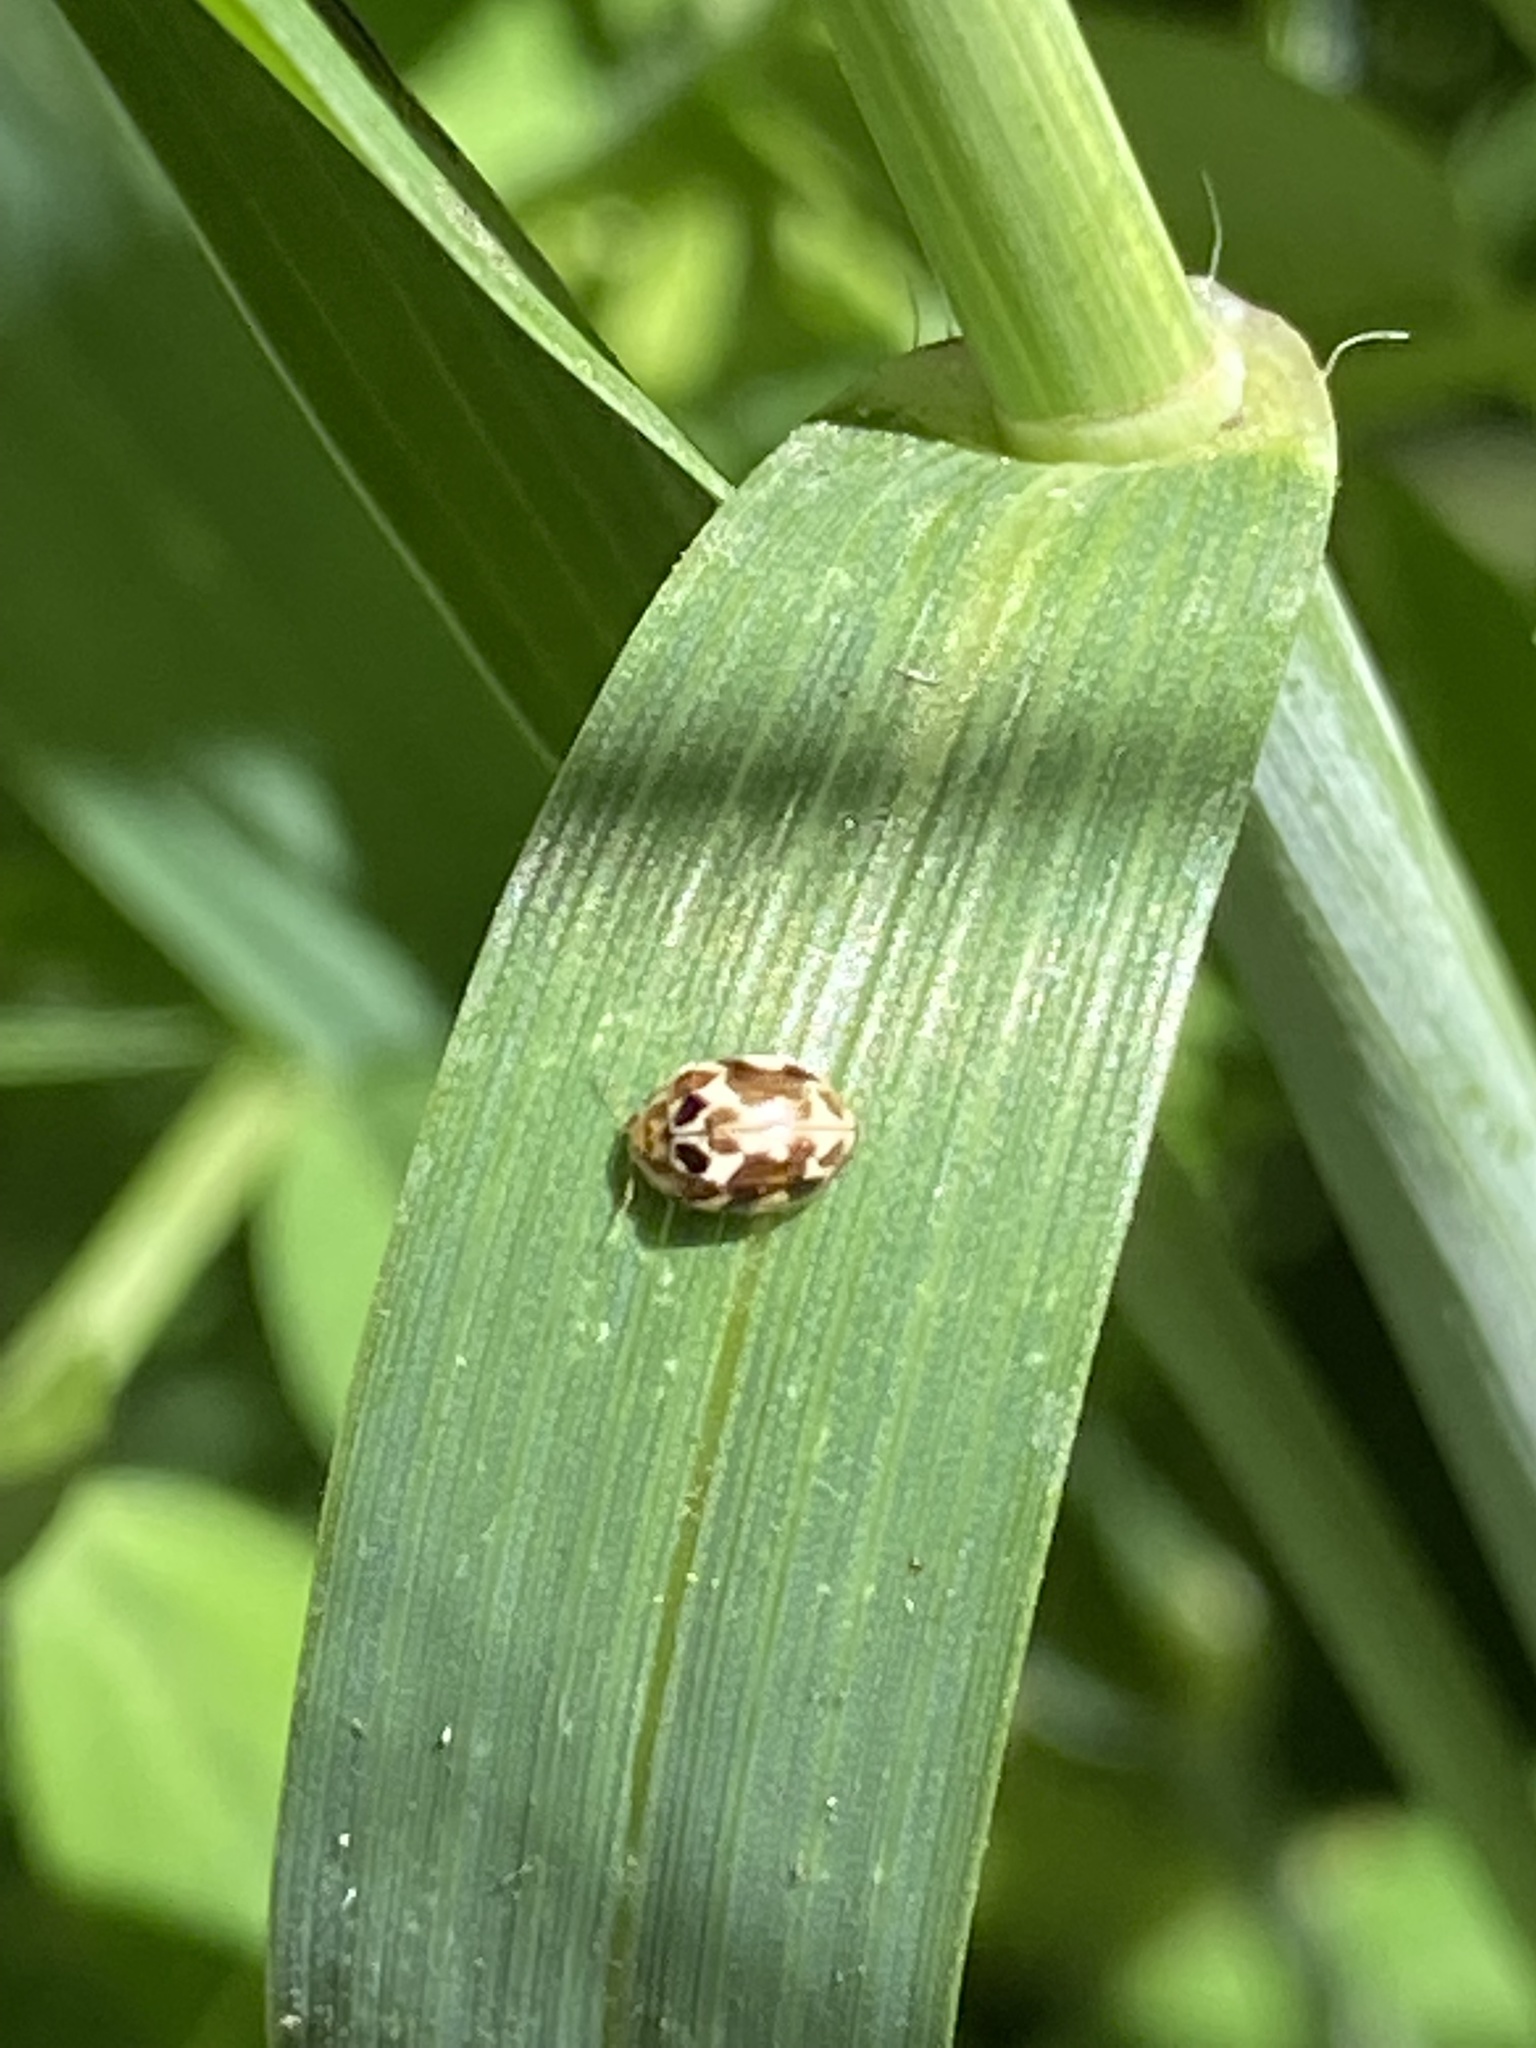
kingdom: Animalia
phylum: Arthropoda
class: Insecta
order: Coleoptera
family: Coccinellidae
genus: Psyllobora
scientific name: Psyllobora vigintimaculata
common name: Ladybird beetle
